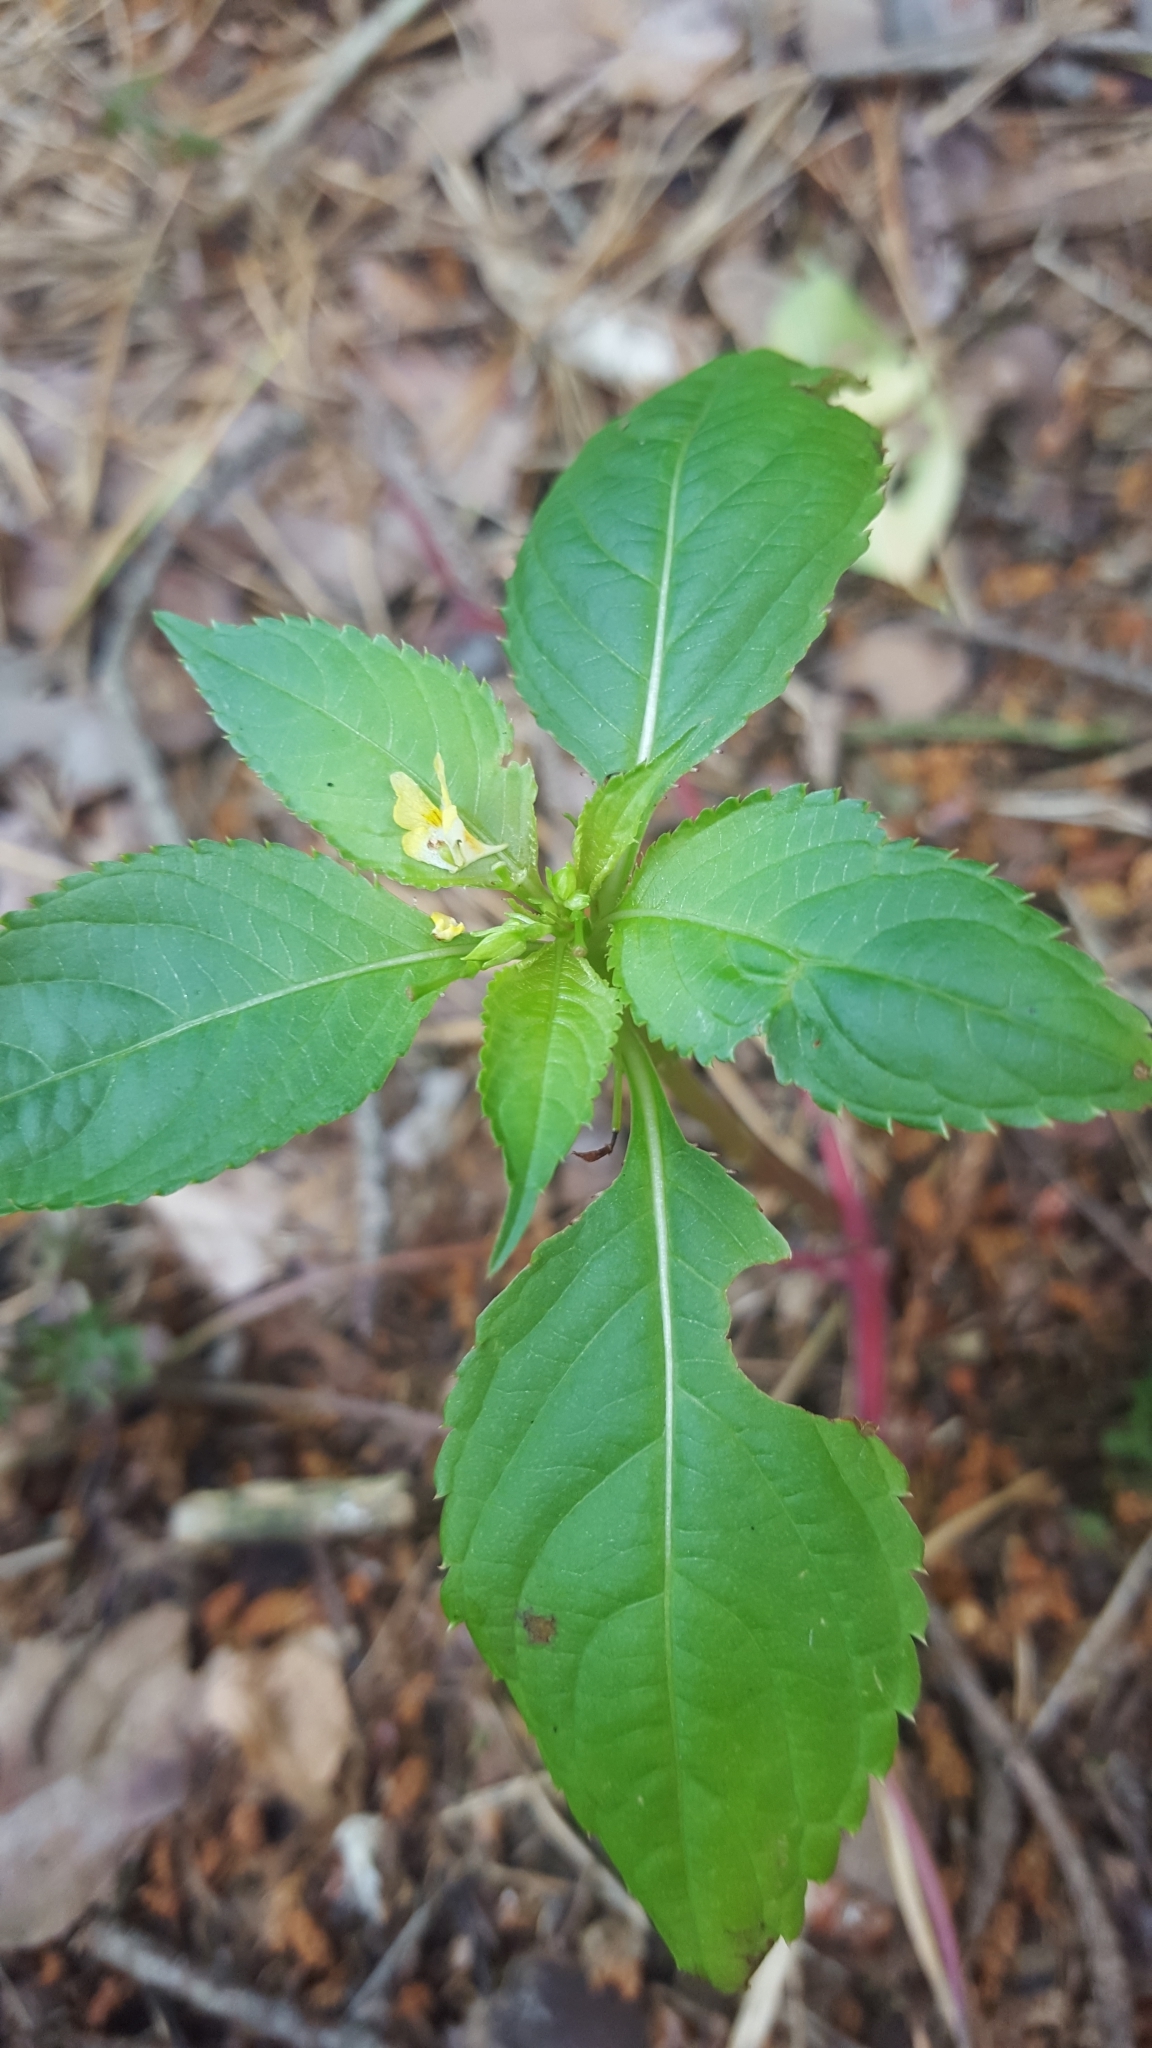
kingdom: Plantae
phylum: Tracheophyta
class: Magnoliopsida
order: Ericales
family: Balsaminaceae
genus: Impatiens
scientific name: Impatiens parviflora
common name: Small balsam
